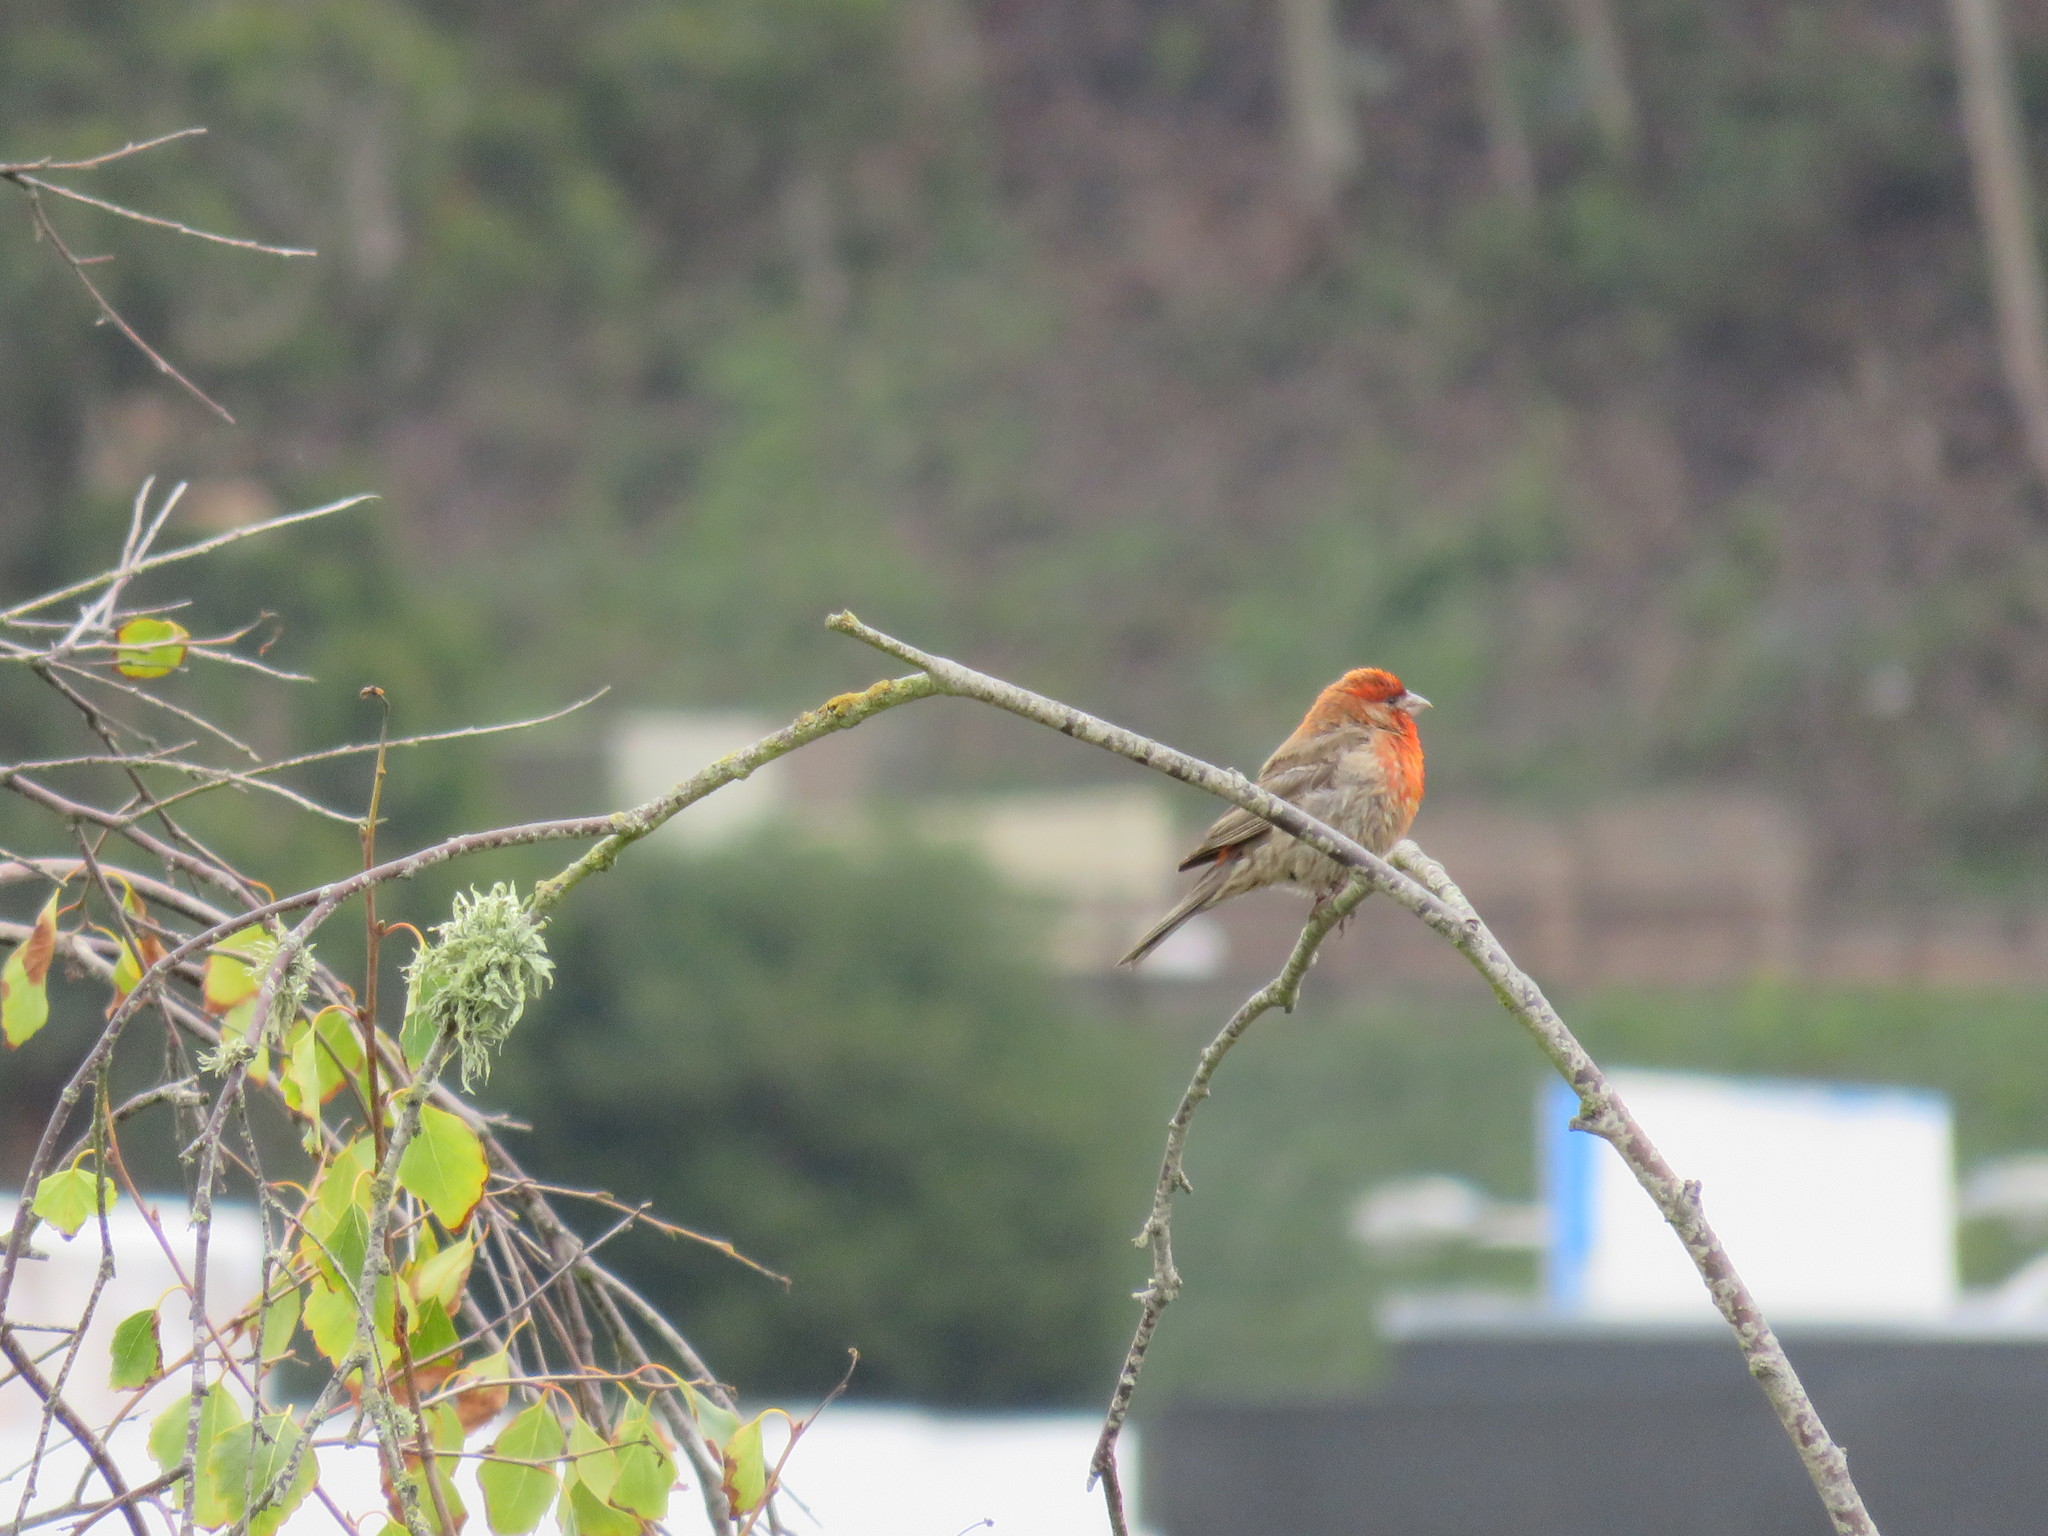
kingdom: Animalia
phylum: Chordata
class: Aves
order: Passeriformes
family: Fringillidae
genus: Haemorhous
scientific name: Haemorhous mexicanus
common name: House finch
